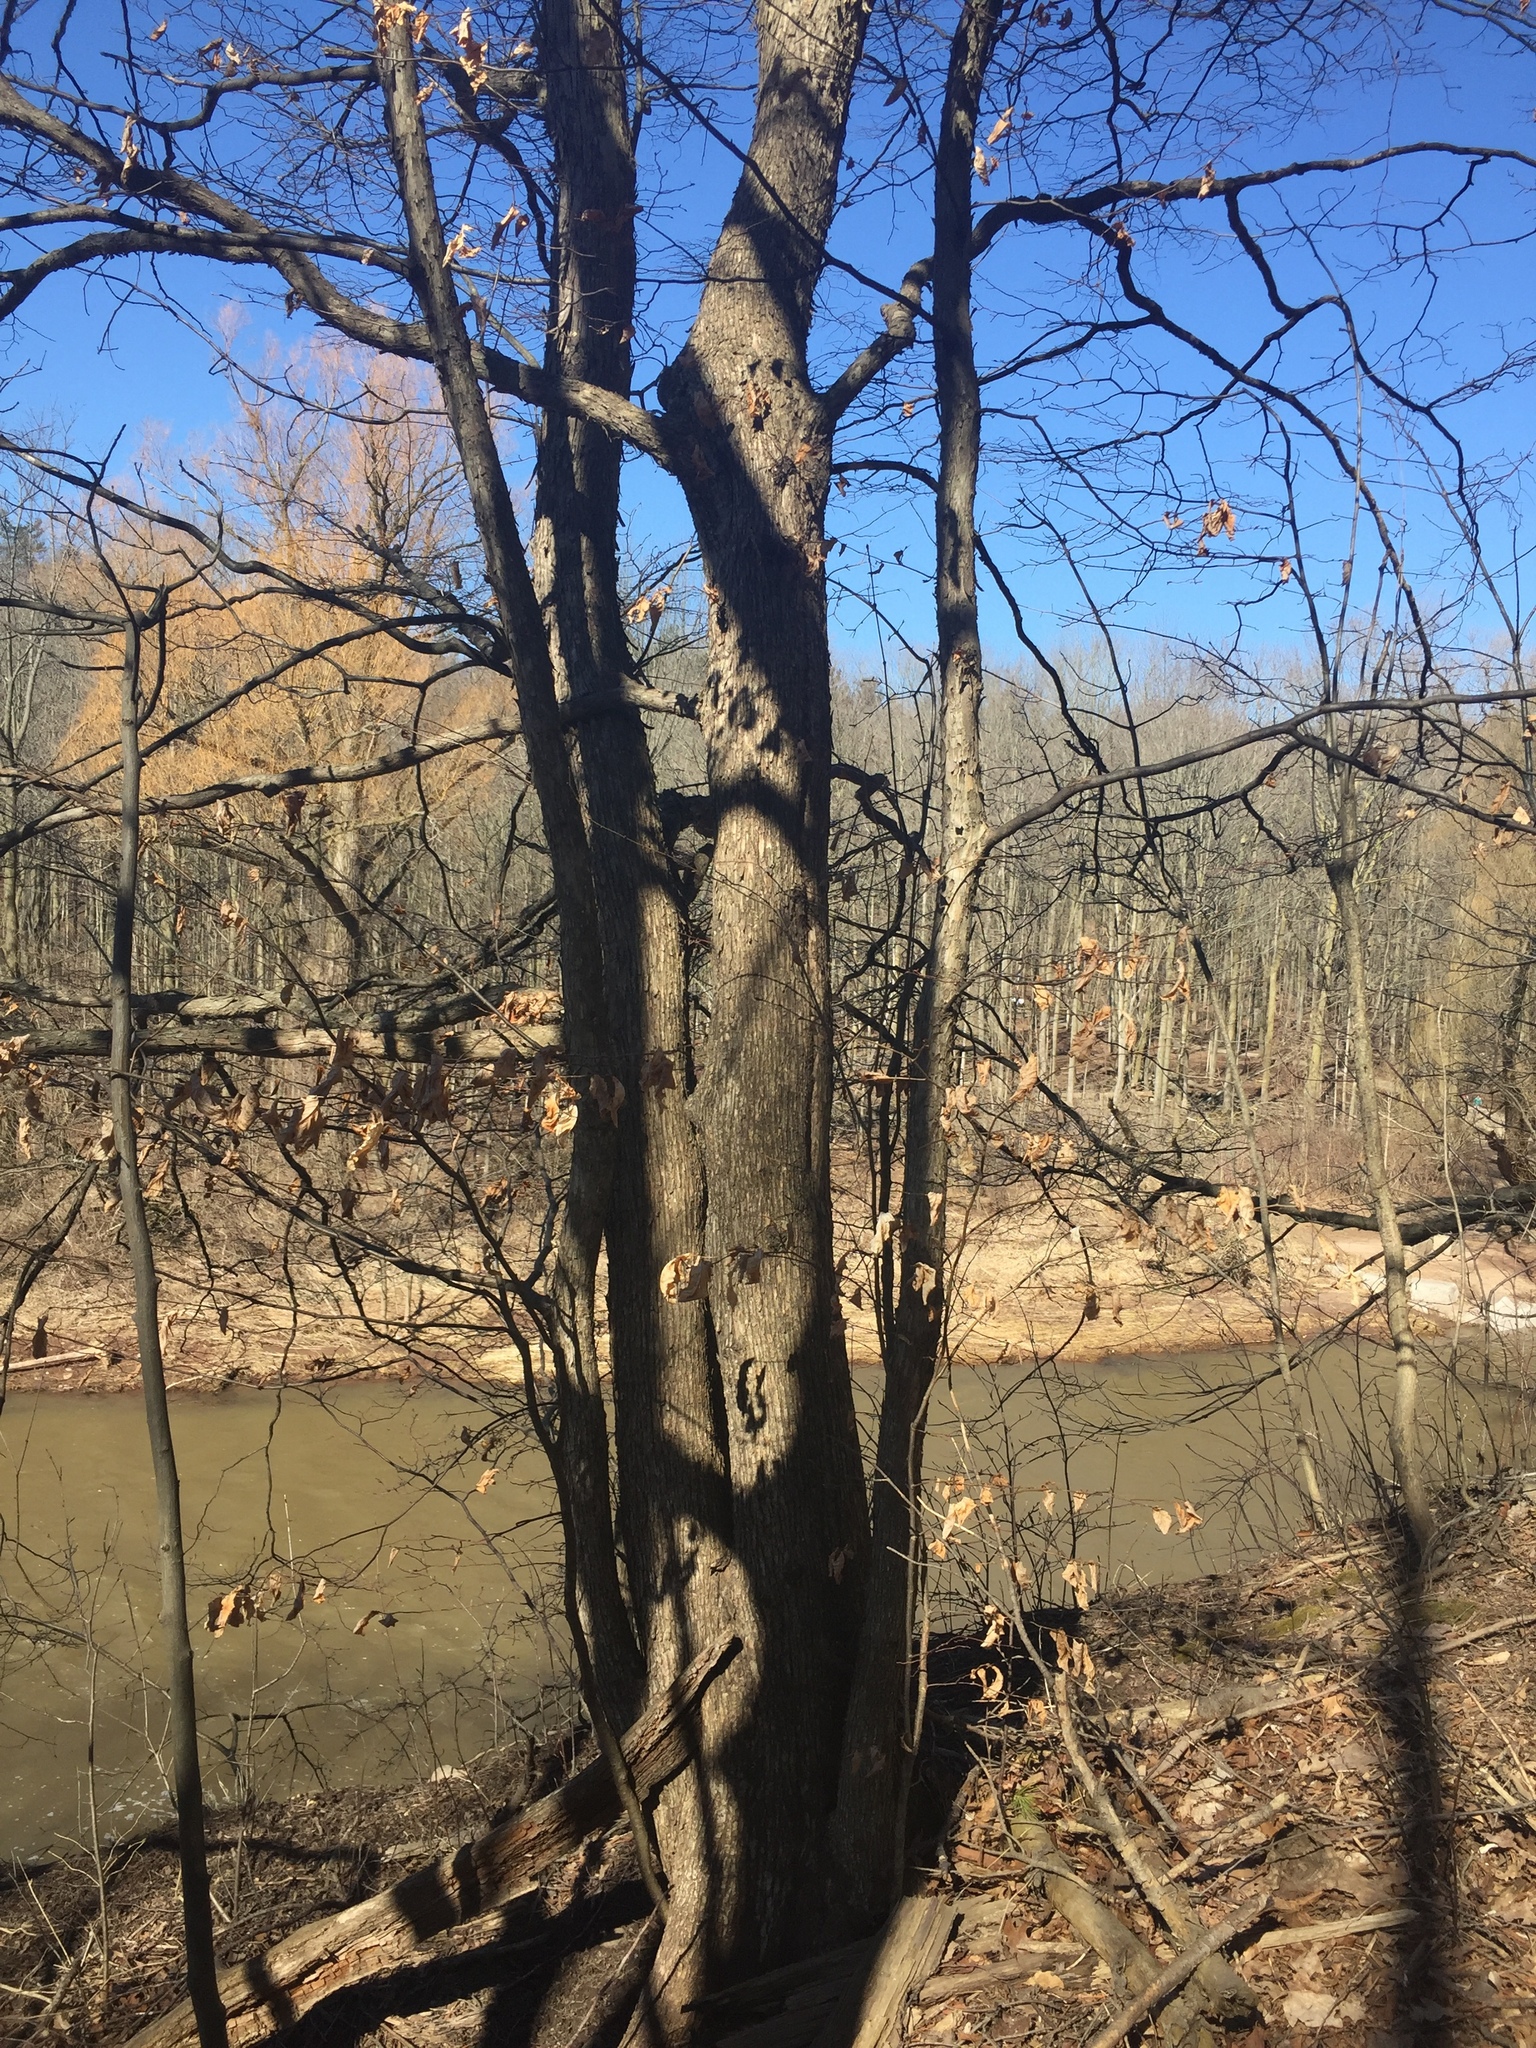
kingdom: Plantae
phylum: Tracheophyta
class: Magnoliopsida
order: Fagales
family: Betulaceae
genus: Ostrya
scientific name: Ostrya virginiana
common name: Ironwood
